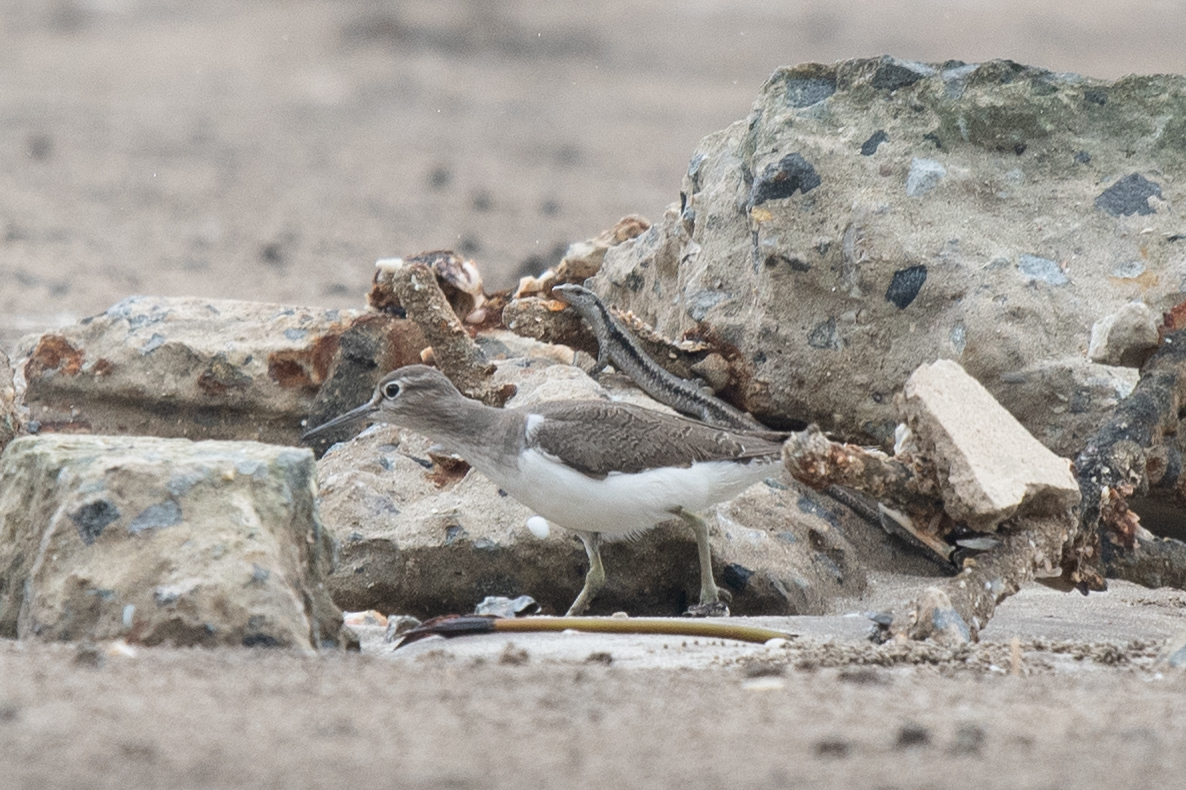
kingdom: Animalia
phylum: Chordata
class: Aves
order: Charadriiformes
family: Scolopacidae
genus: Actitis
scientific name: Actitis hypoleucos
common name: Common sandpiper
